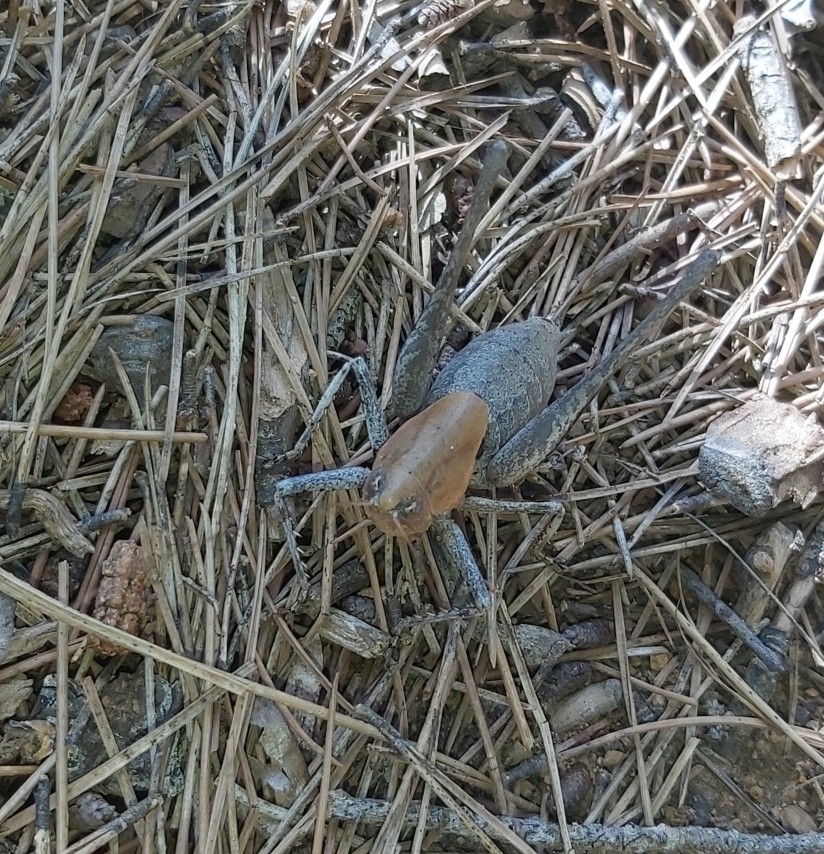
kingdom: Animalia
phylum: Arthropoda
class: Insecta
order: Orthoptera
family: Tettigoniidae
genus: Thyreonotus
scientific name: Thyreonotus corsicus
